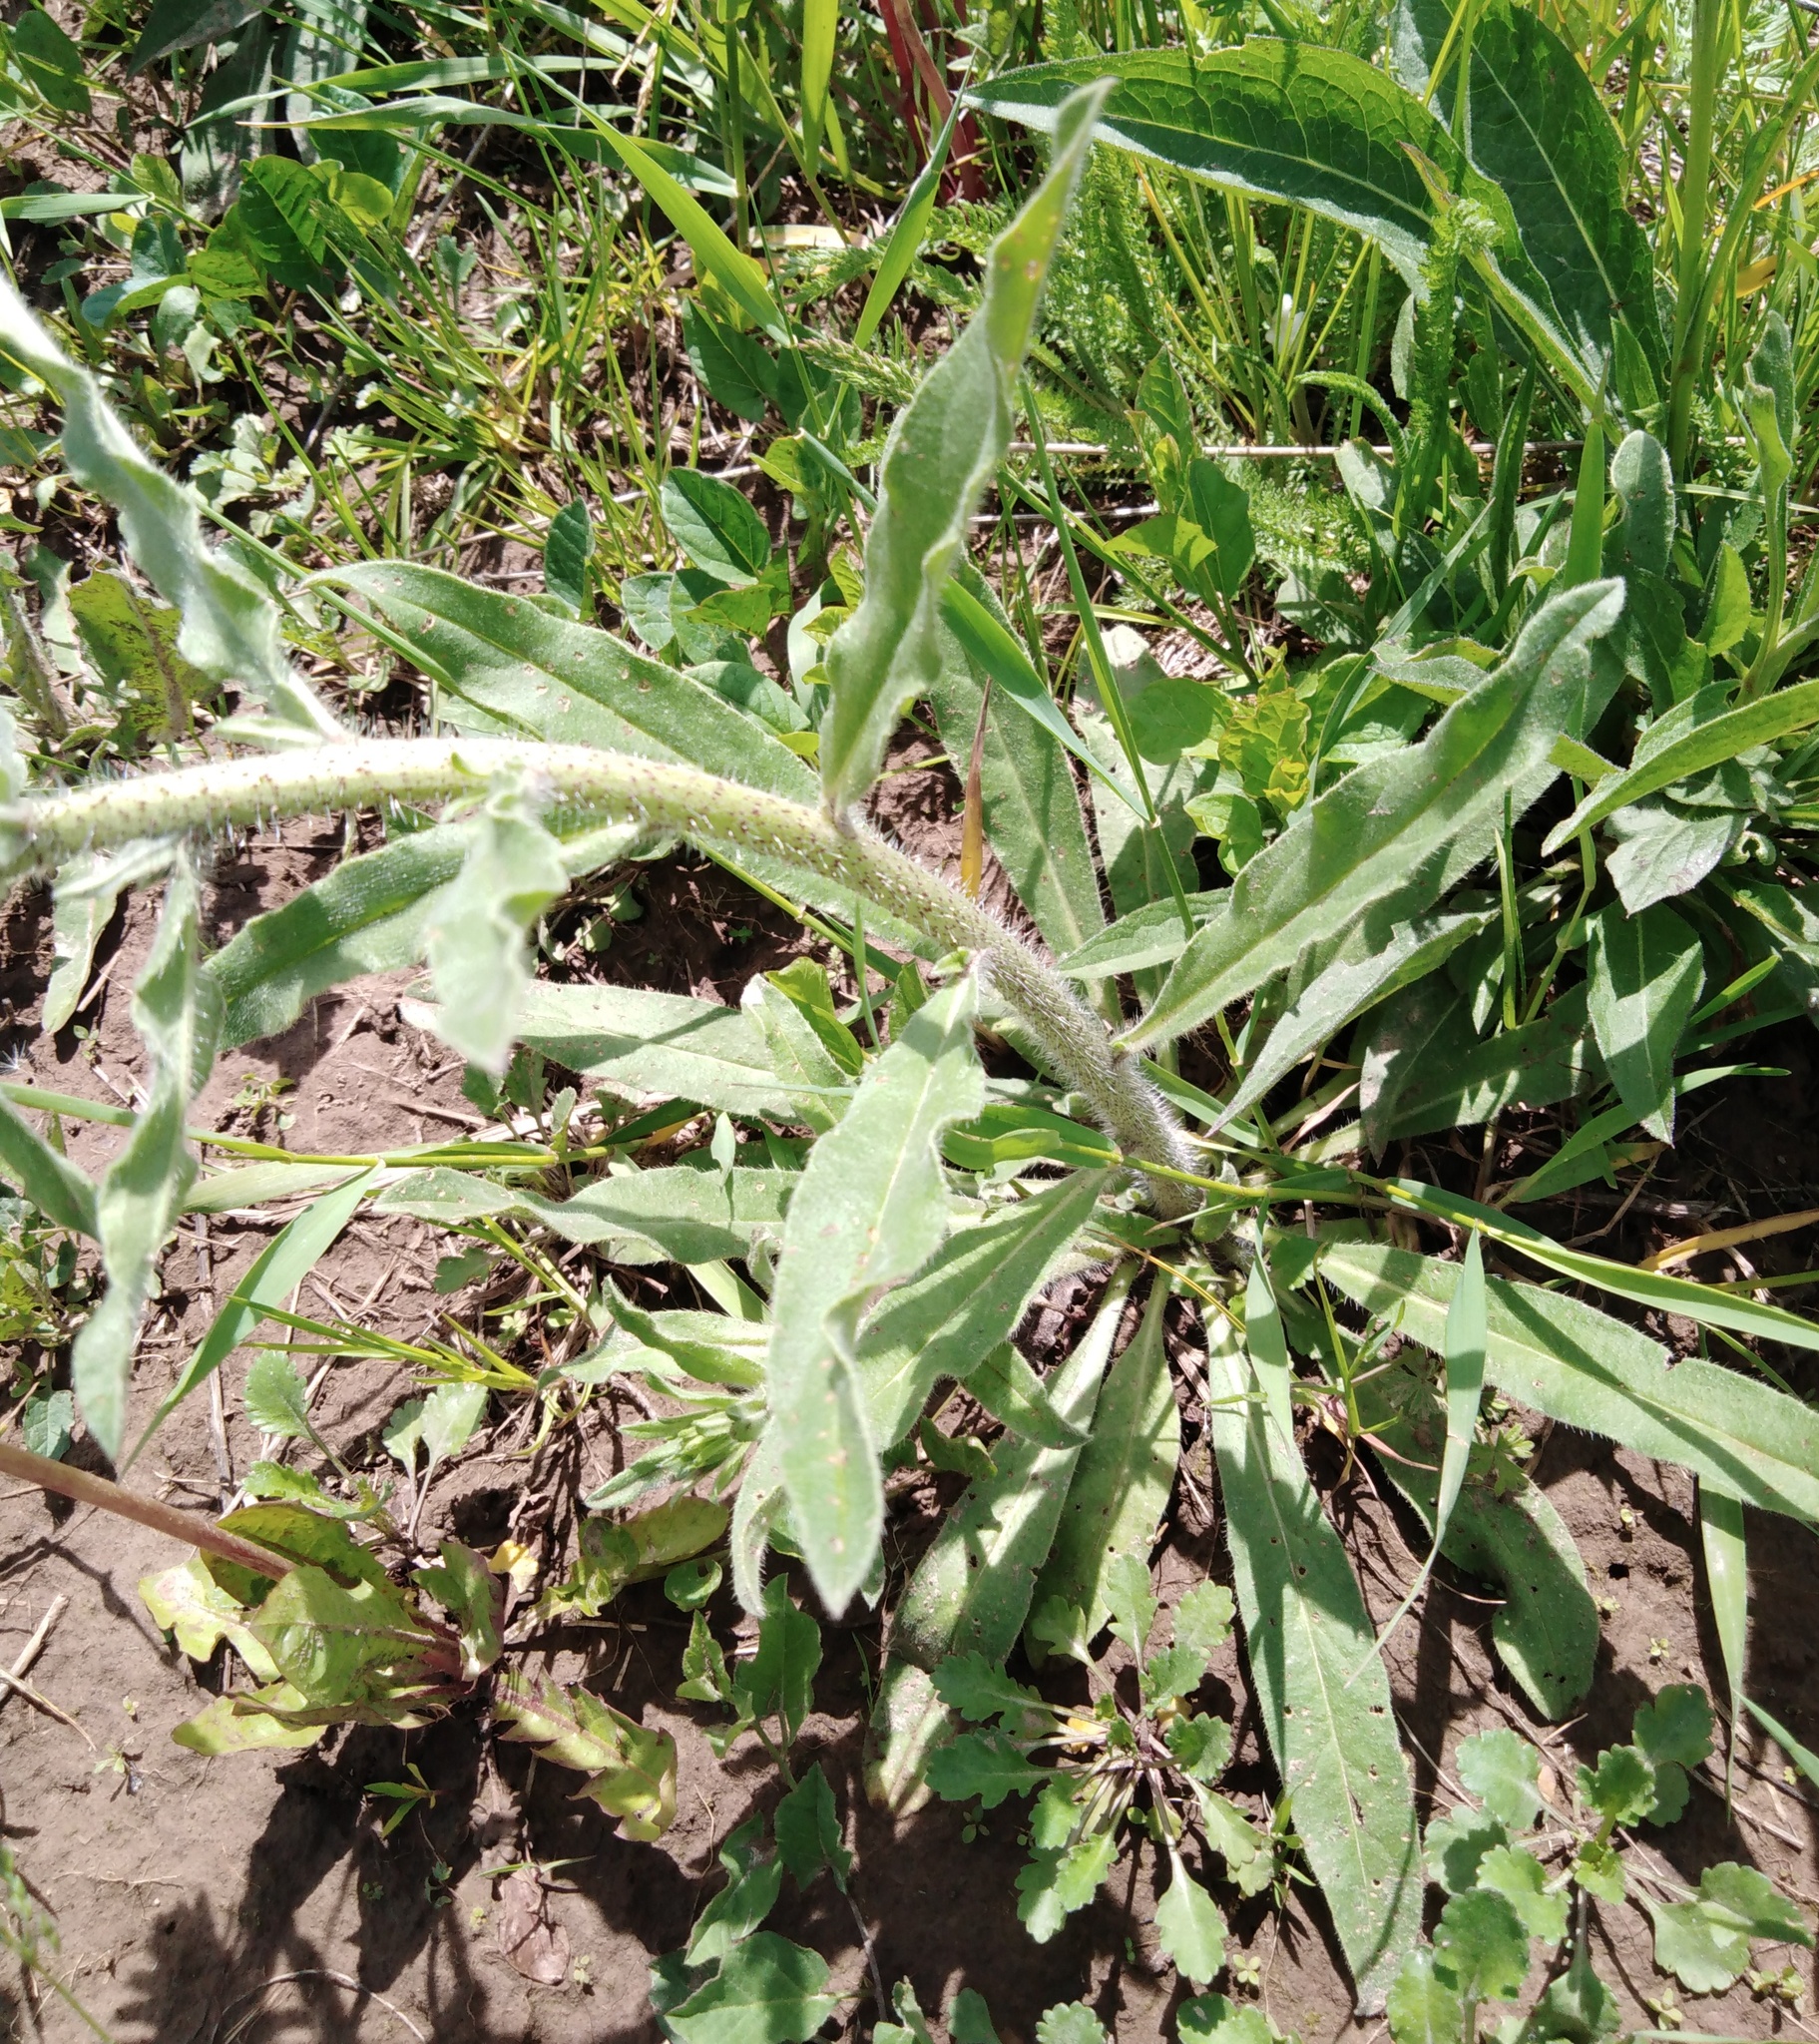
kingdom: Plantae
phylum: Tracheophyta
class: Magnoliopsida
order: Boraginales
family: Boraginaceae
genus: Echium
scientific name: Echium vulgare
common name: Common viper's bugloss
